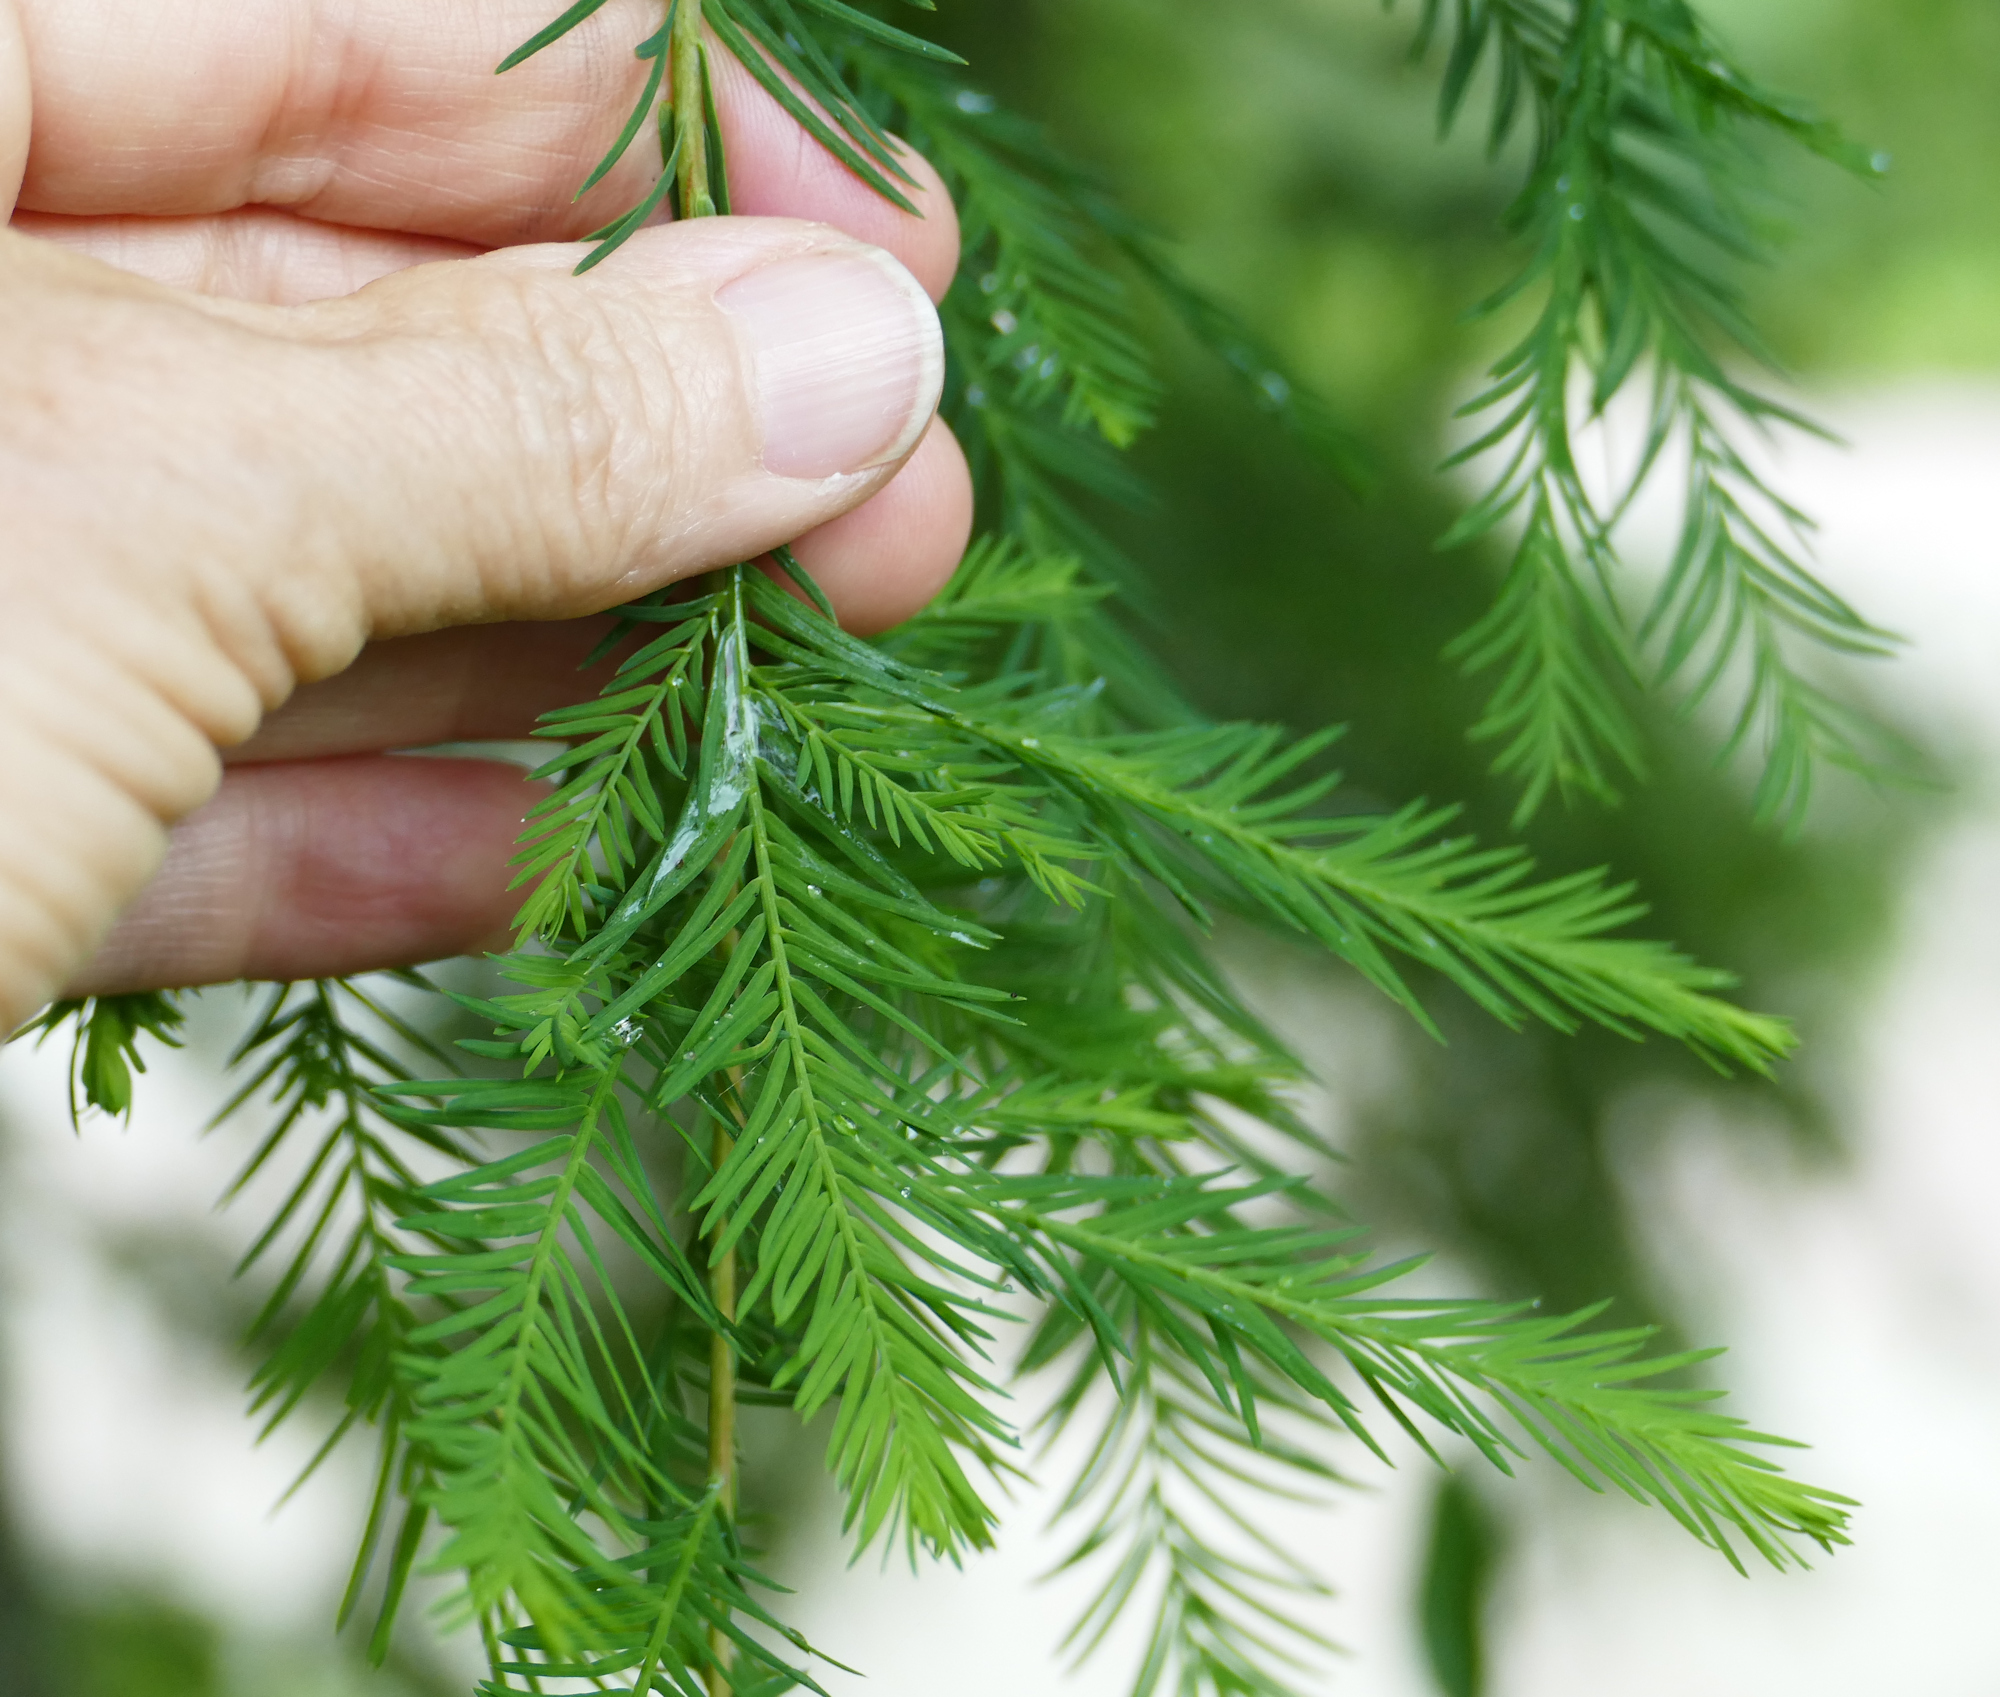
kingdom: Plantae
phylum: Tracheophyta
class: Pinopsida
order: Pinales
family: Cupressaceae
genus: Taxodium
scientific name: Taxodium distichum
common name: Bald cypress
